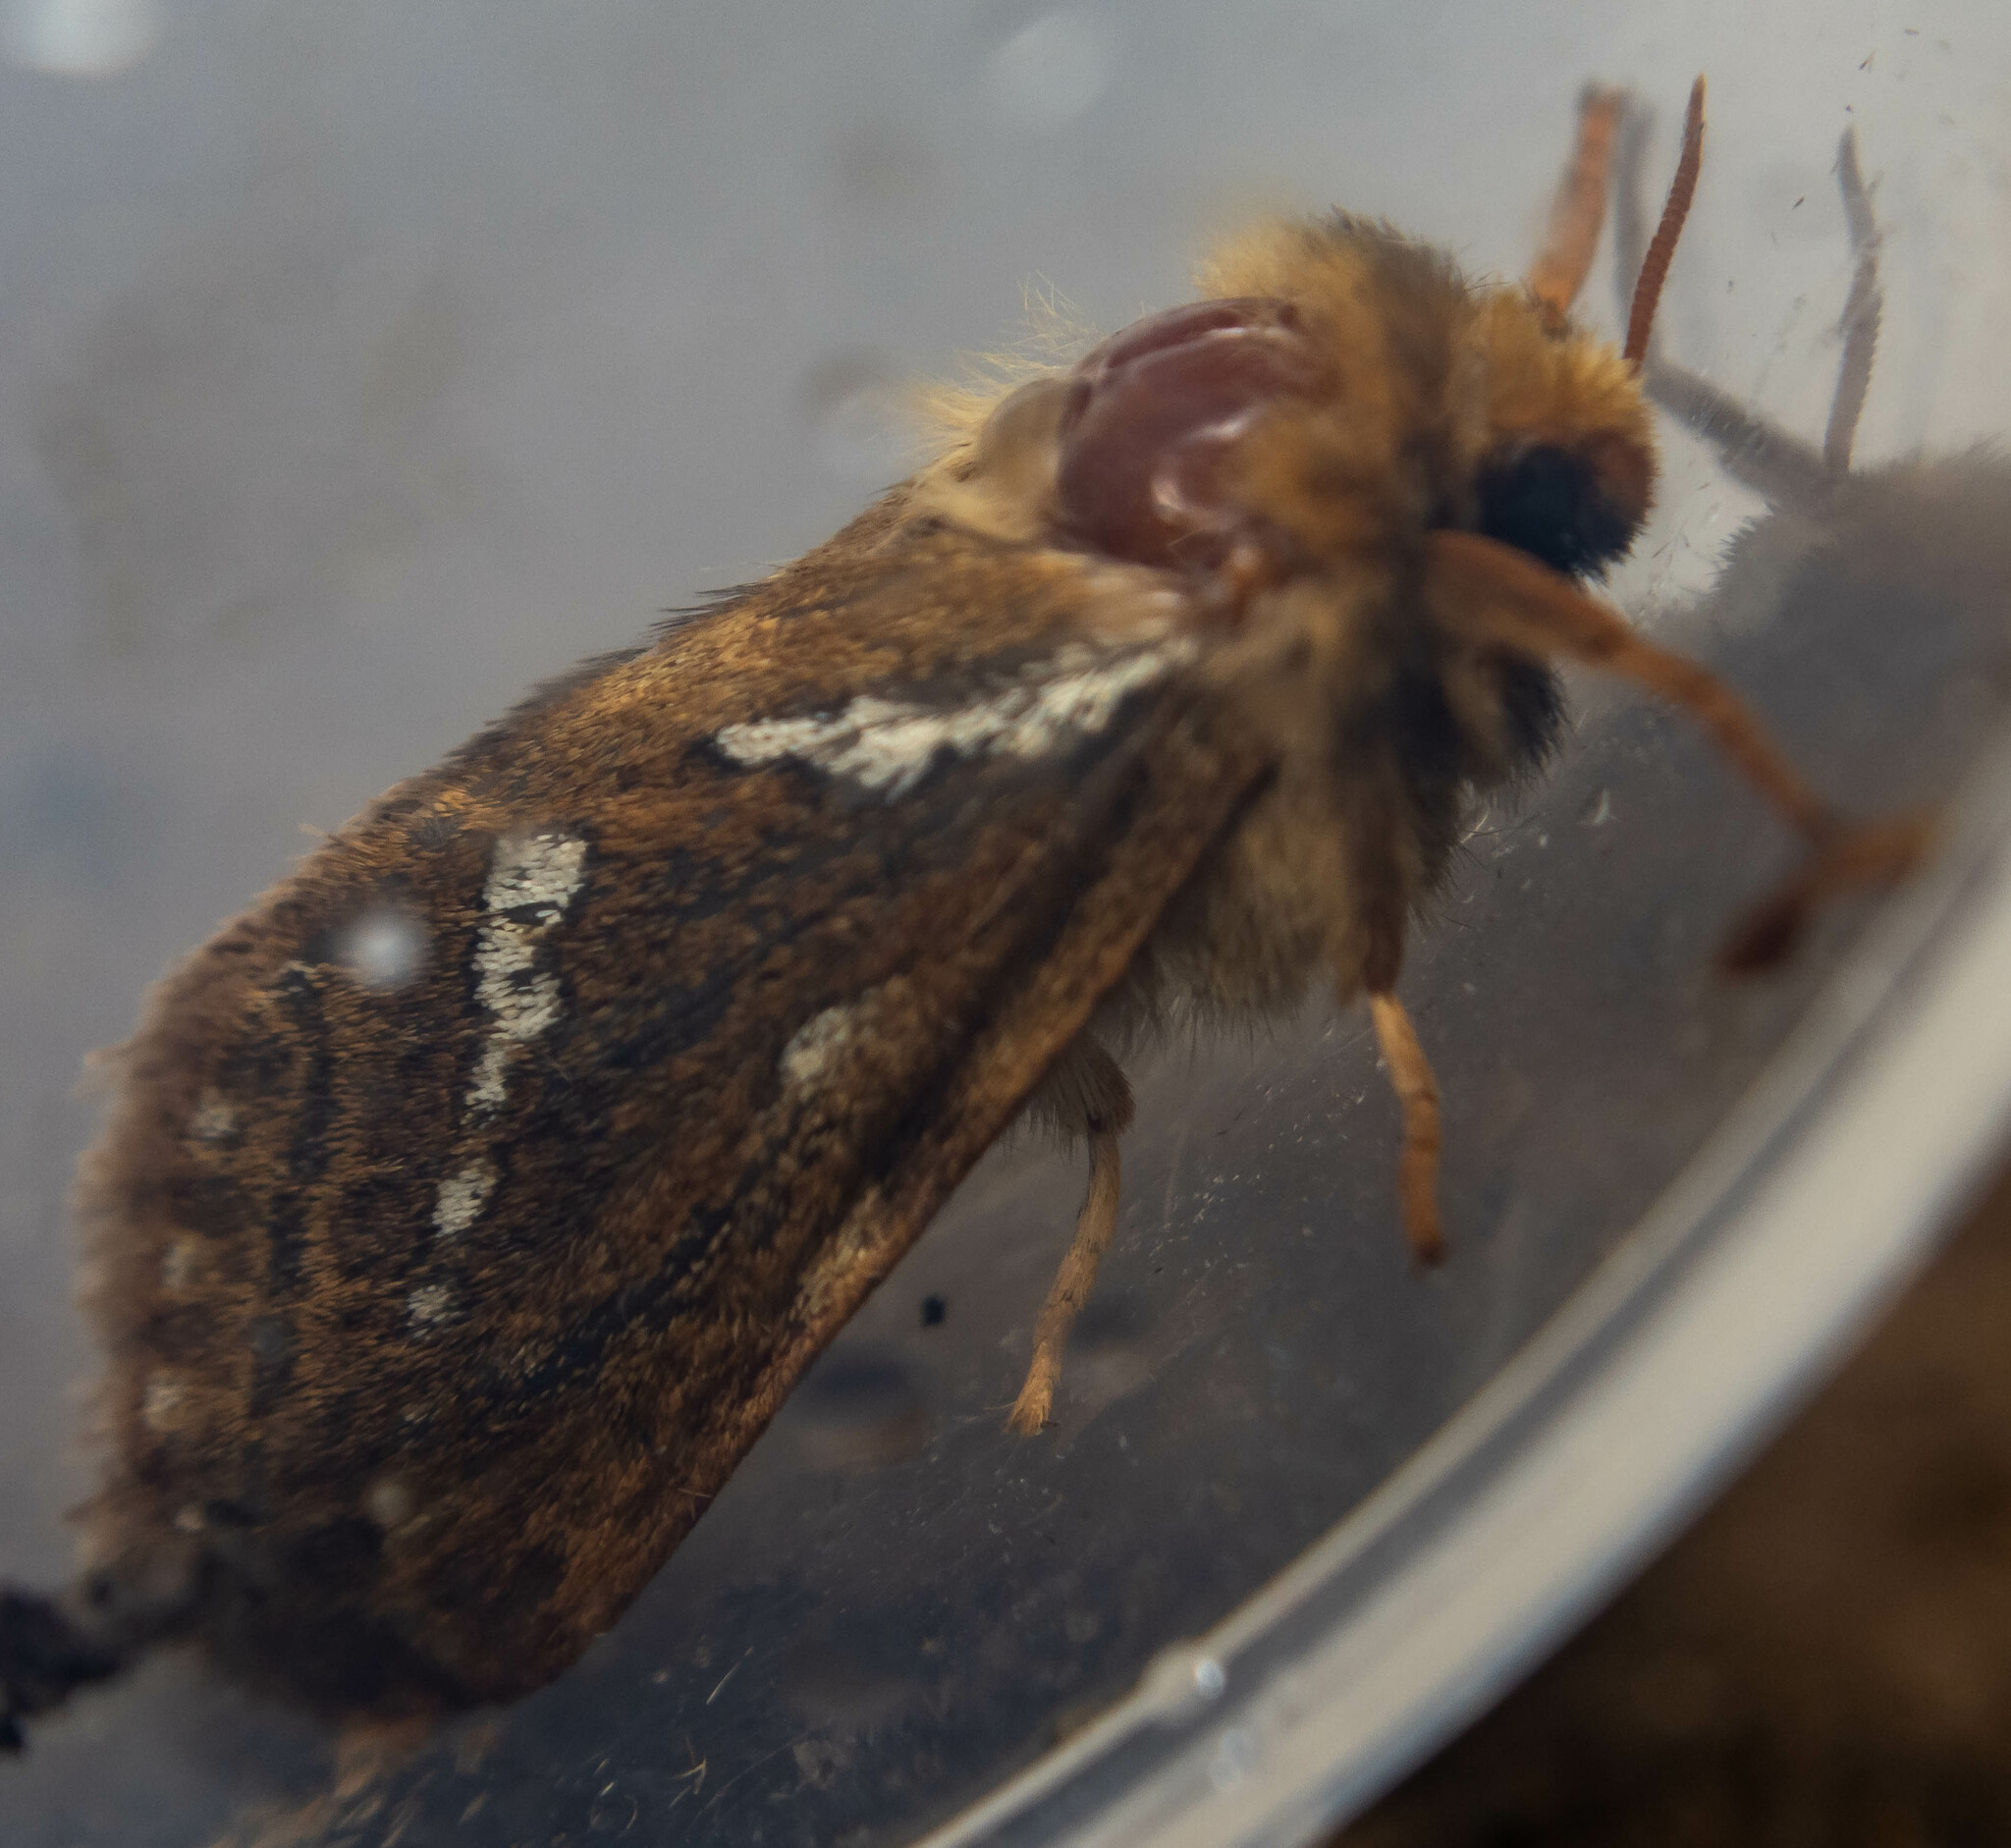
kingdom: Animalia
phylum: Arthropoda
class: Insecta
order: Lepidoptera
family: Hepialidae
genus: Korscheltellus
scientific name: Korscheltellus lupulina
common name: Common swift
